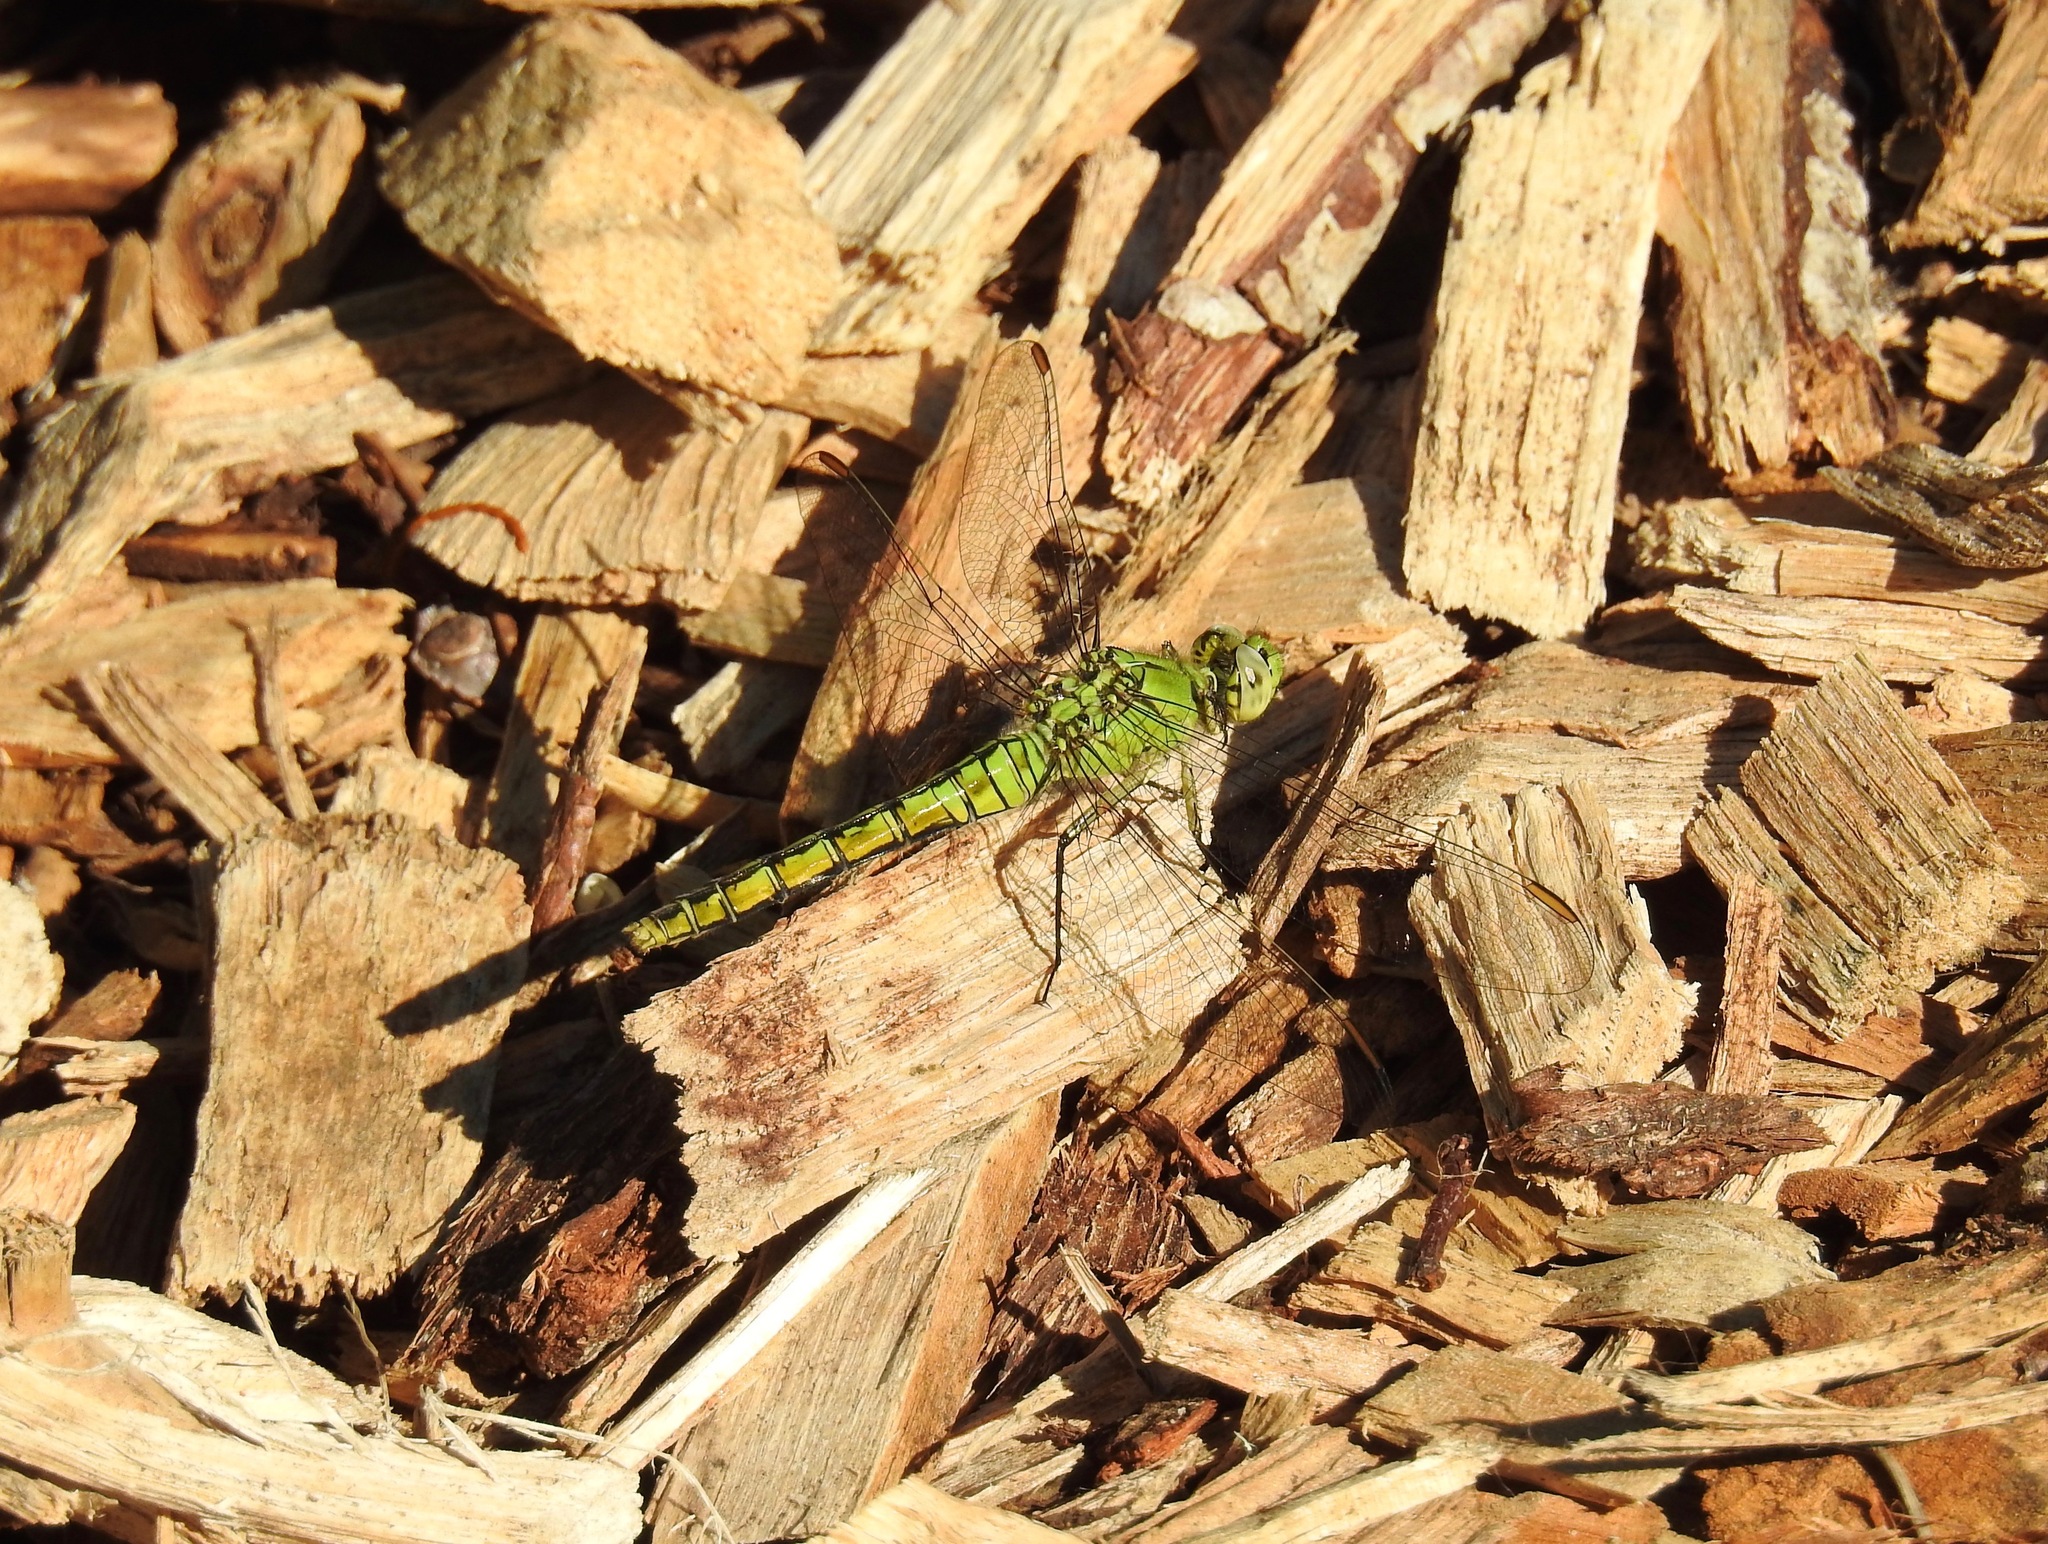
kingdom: Animalia
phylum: Arthropoda
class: Insecta
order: Odonata
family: Libellulidae
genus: Erythemis
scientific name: Erythemis collocata
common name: Western pondhawk
